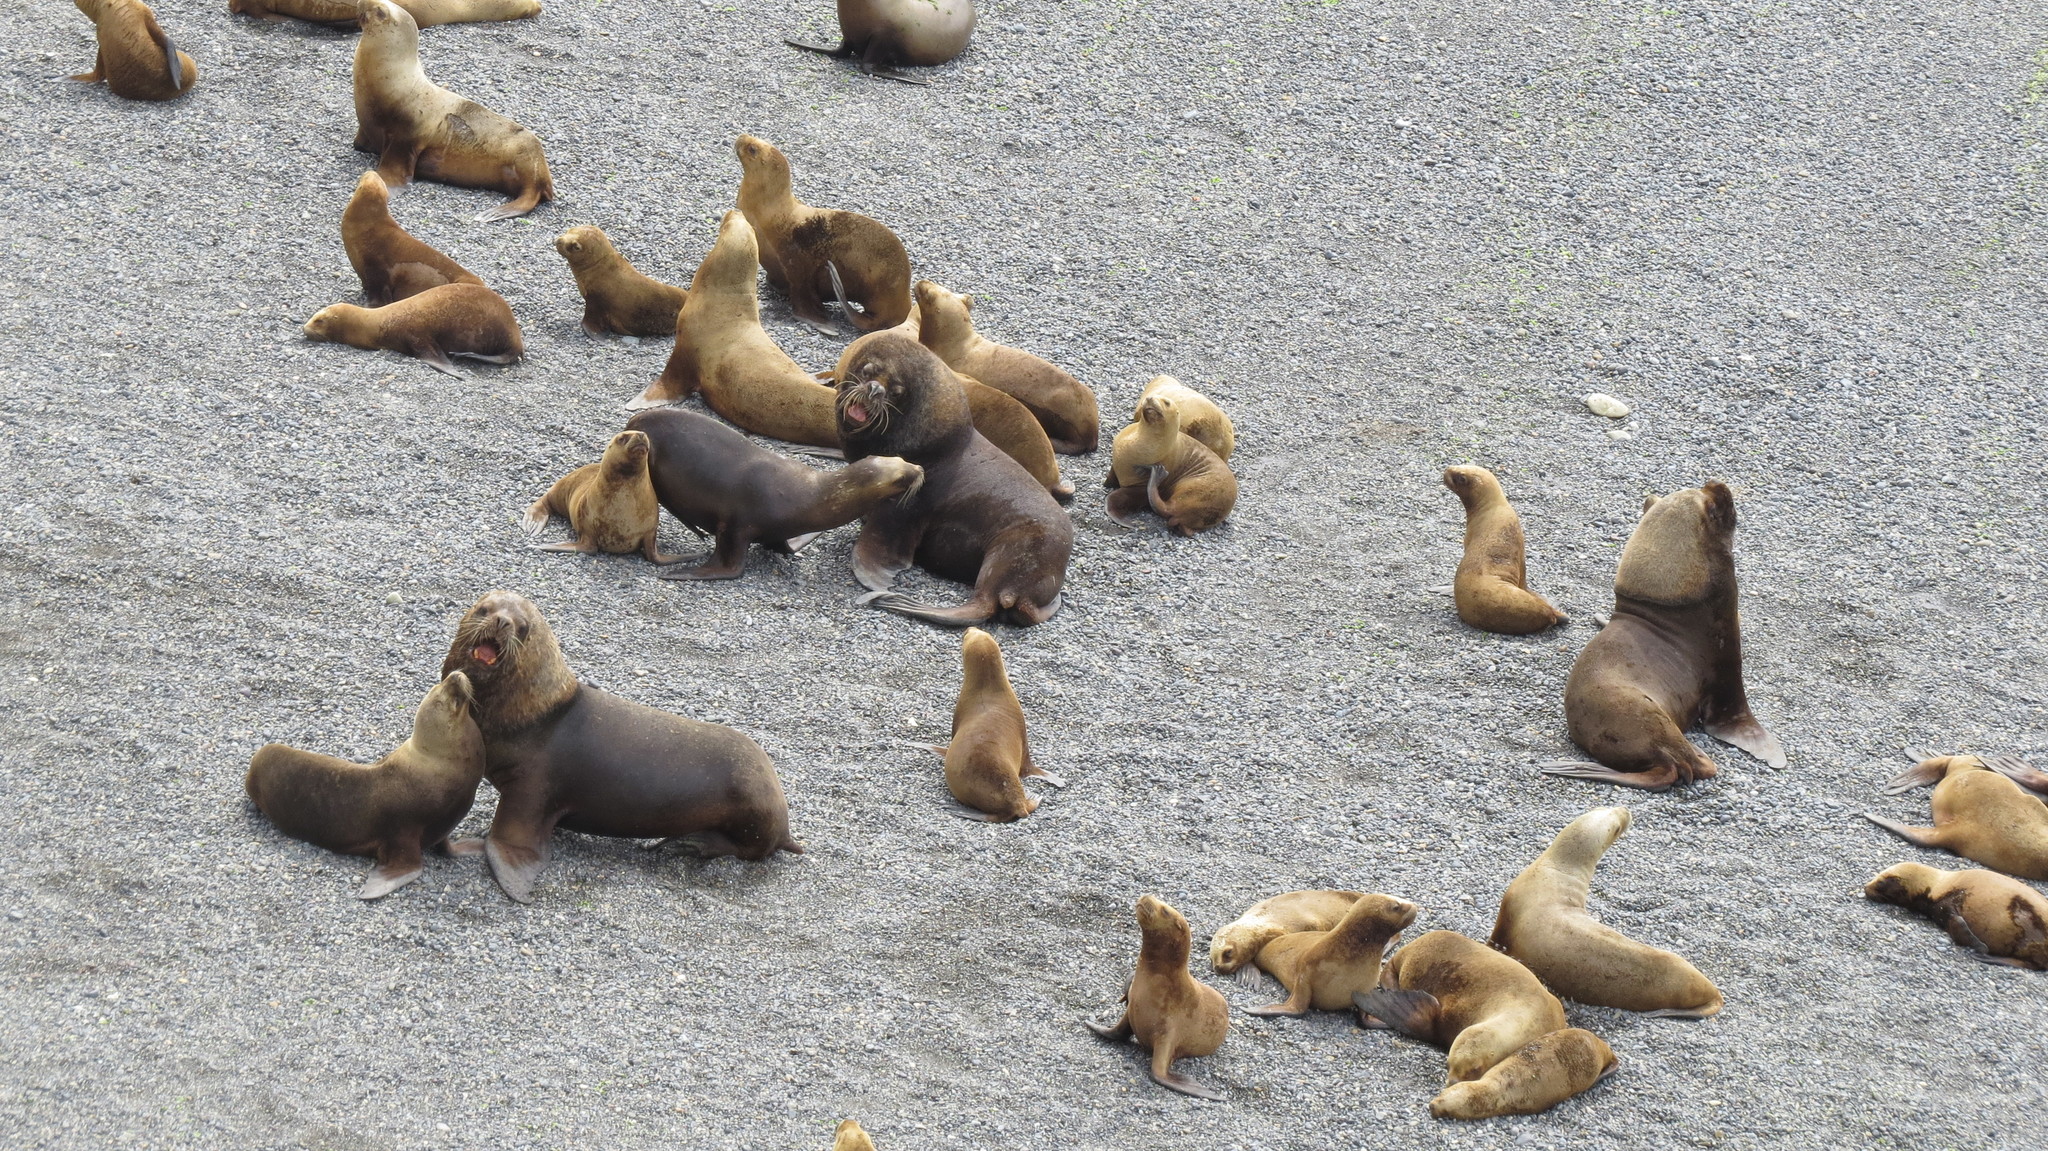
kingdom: Animalia
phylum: Chordata
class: Mammalia
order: Carnivora
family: Otariidae
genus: Otaria
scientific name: Otaria byronia
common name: South american sea lion
